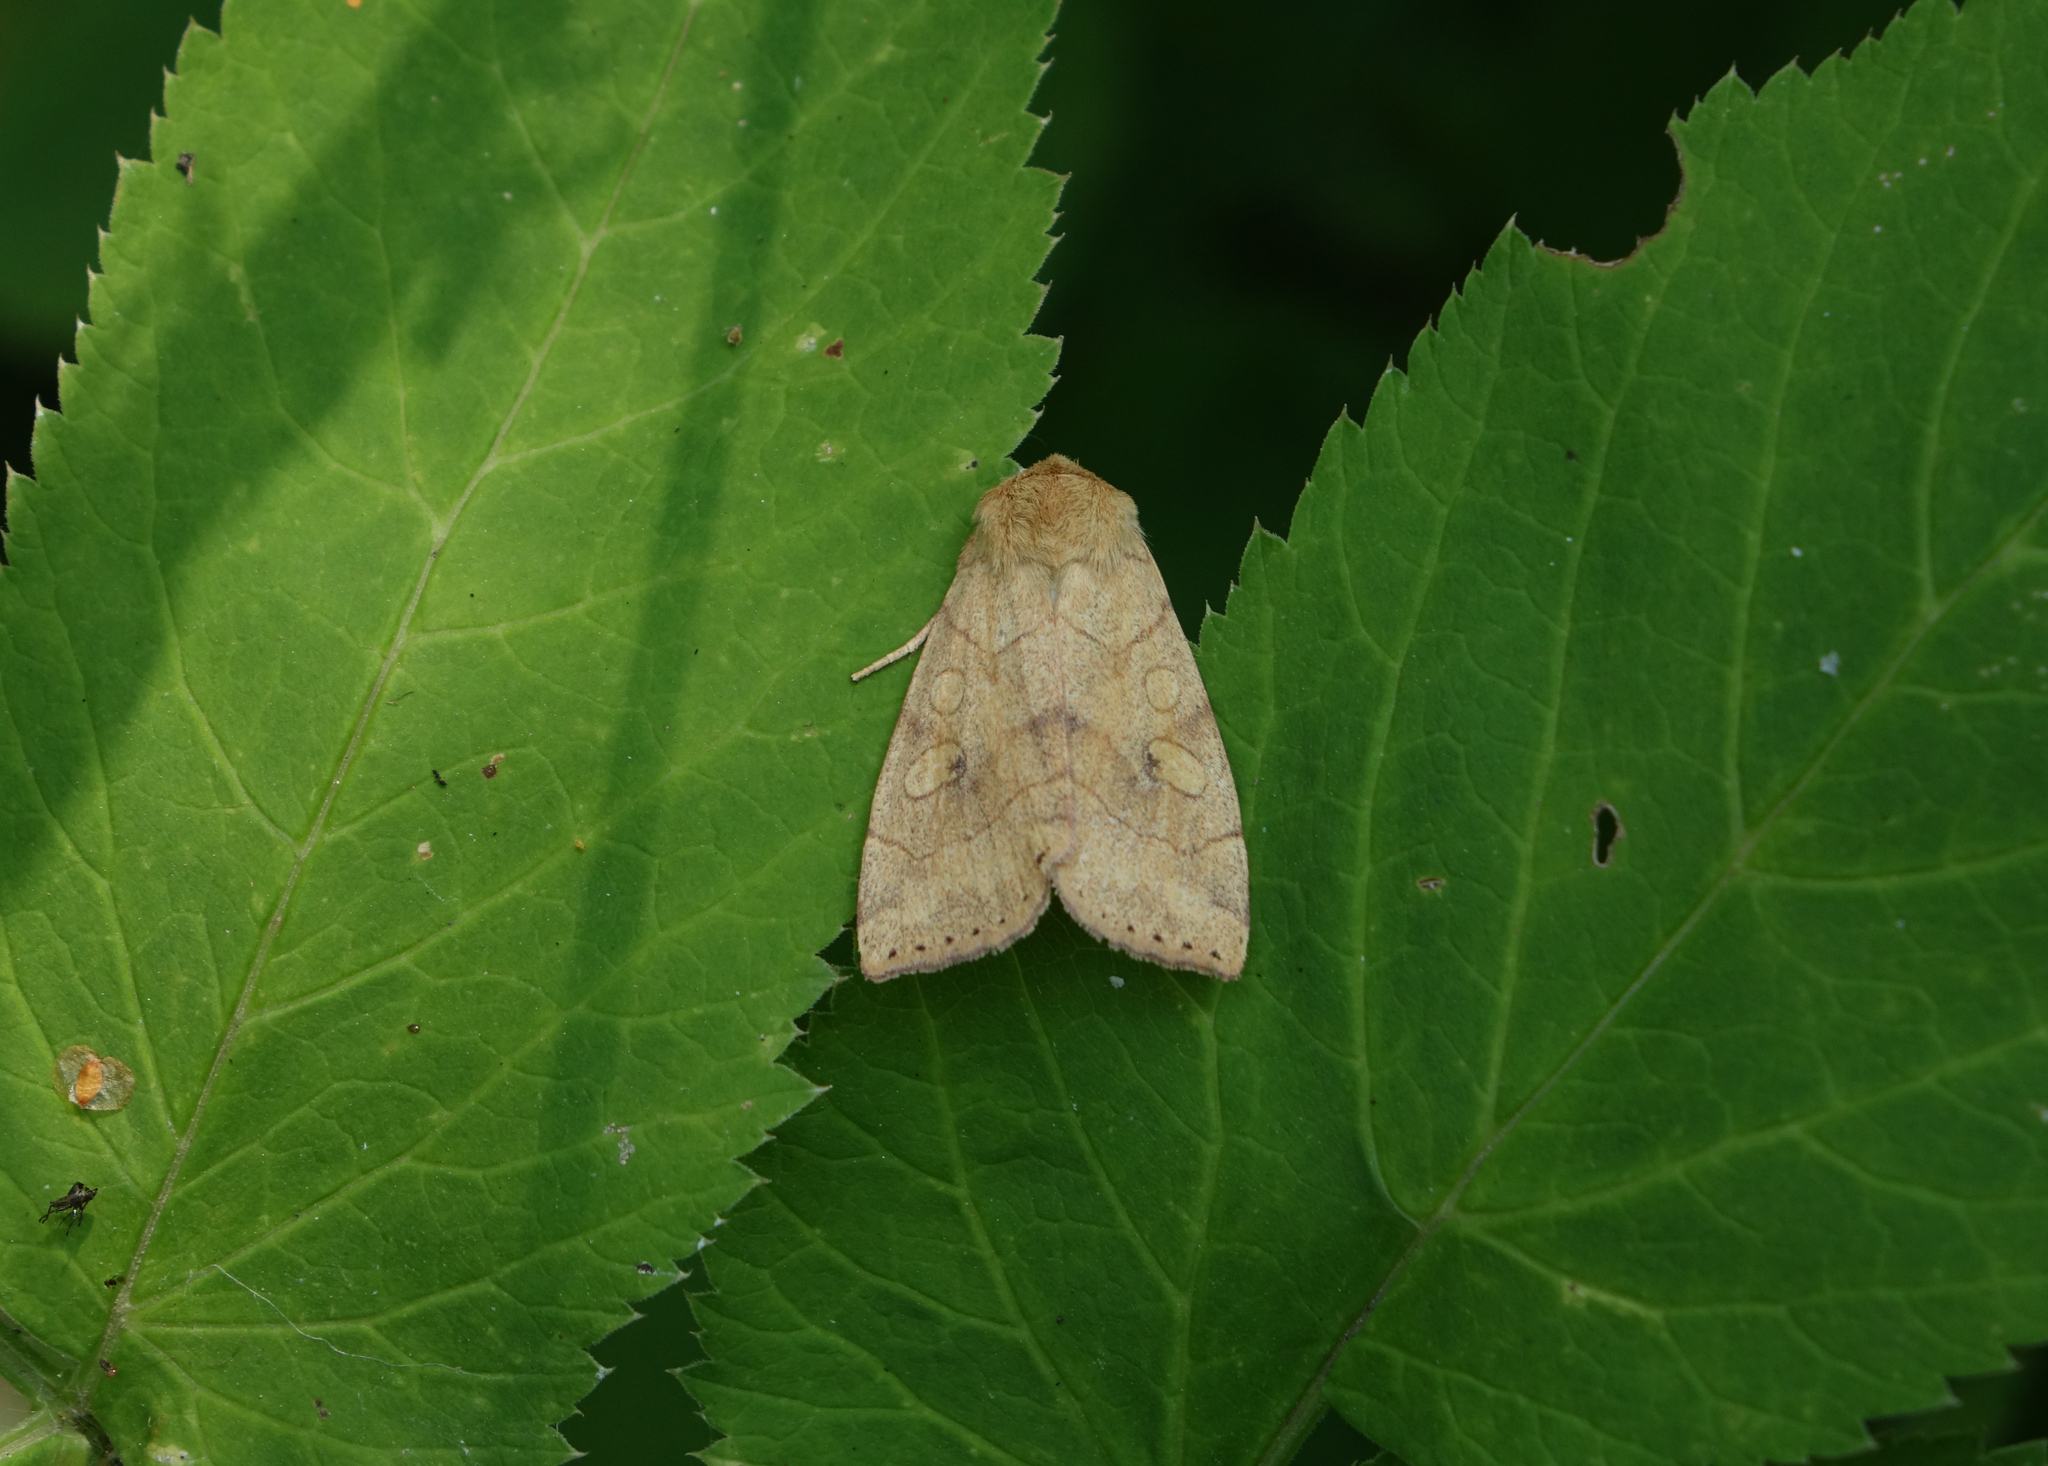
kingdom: Animalia
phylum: Arthropoda
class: Insecta
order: Lepidoptera
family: Noctuidae
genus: Enargia
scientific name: Enargia paleacea
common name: Angle-striped sallow
